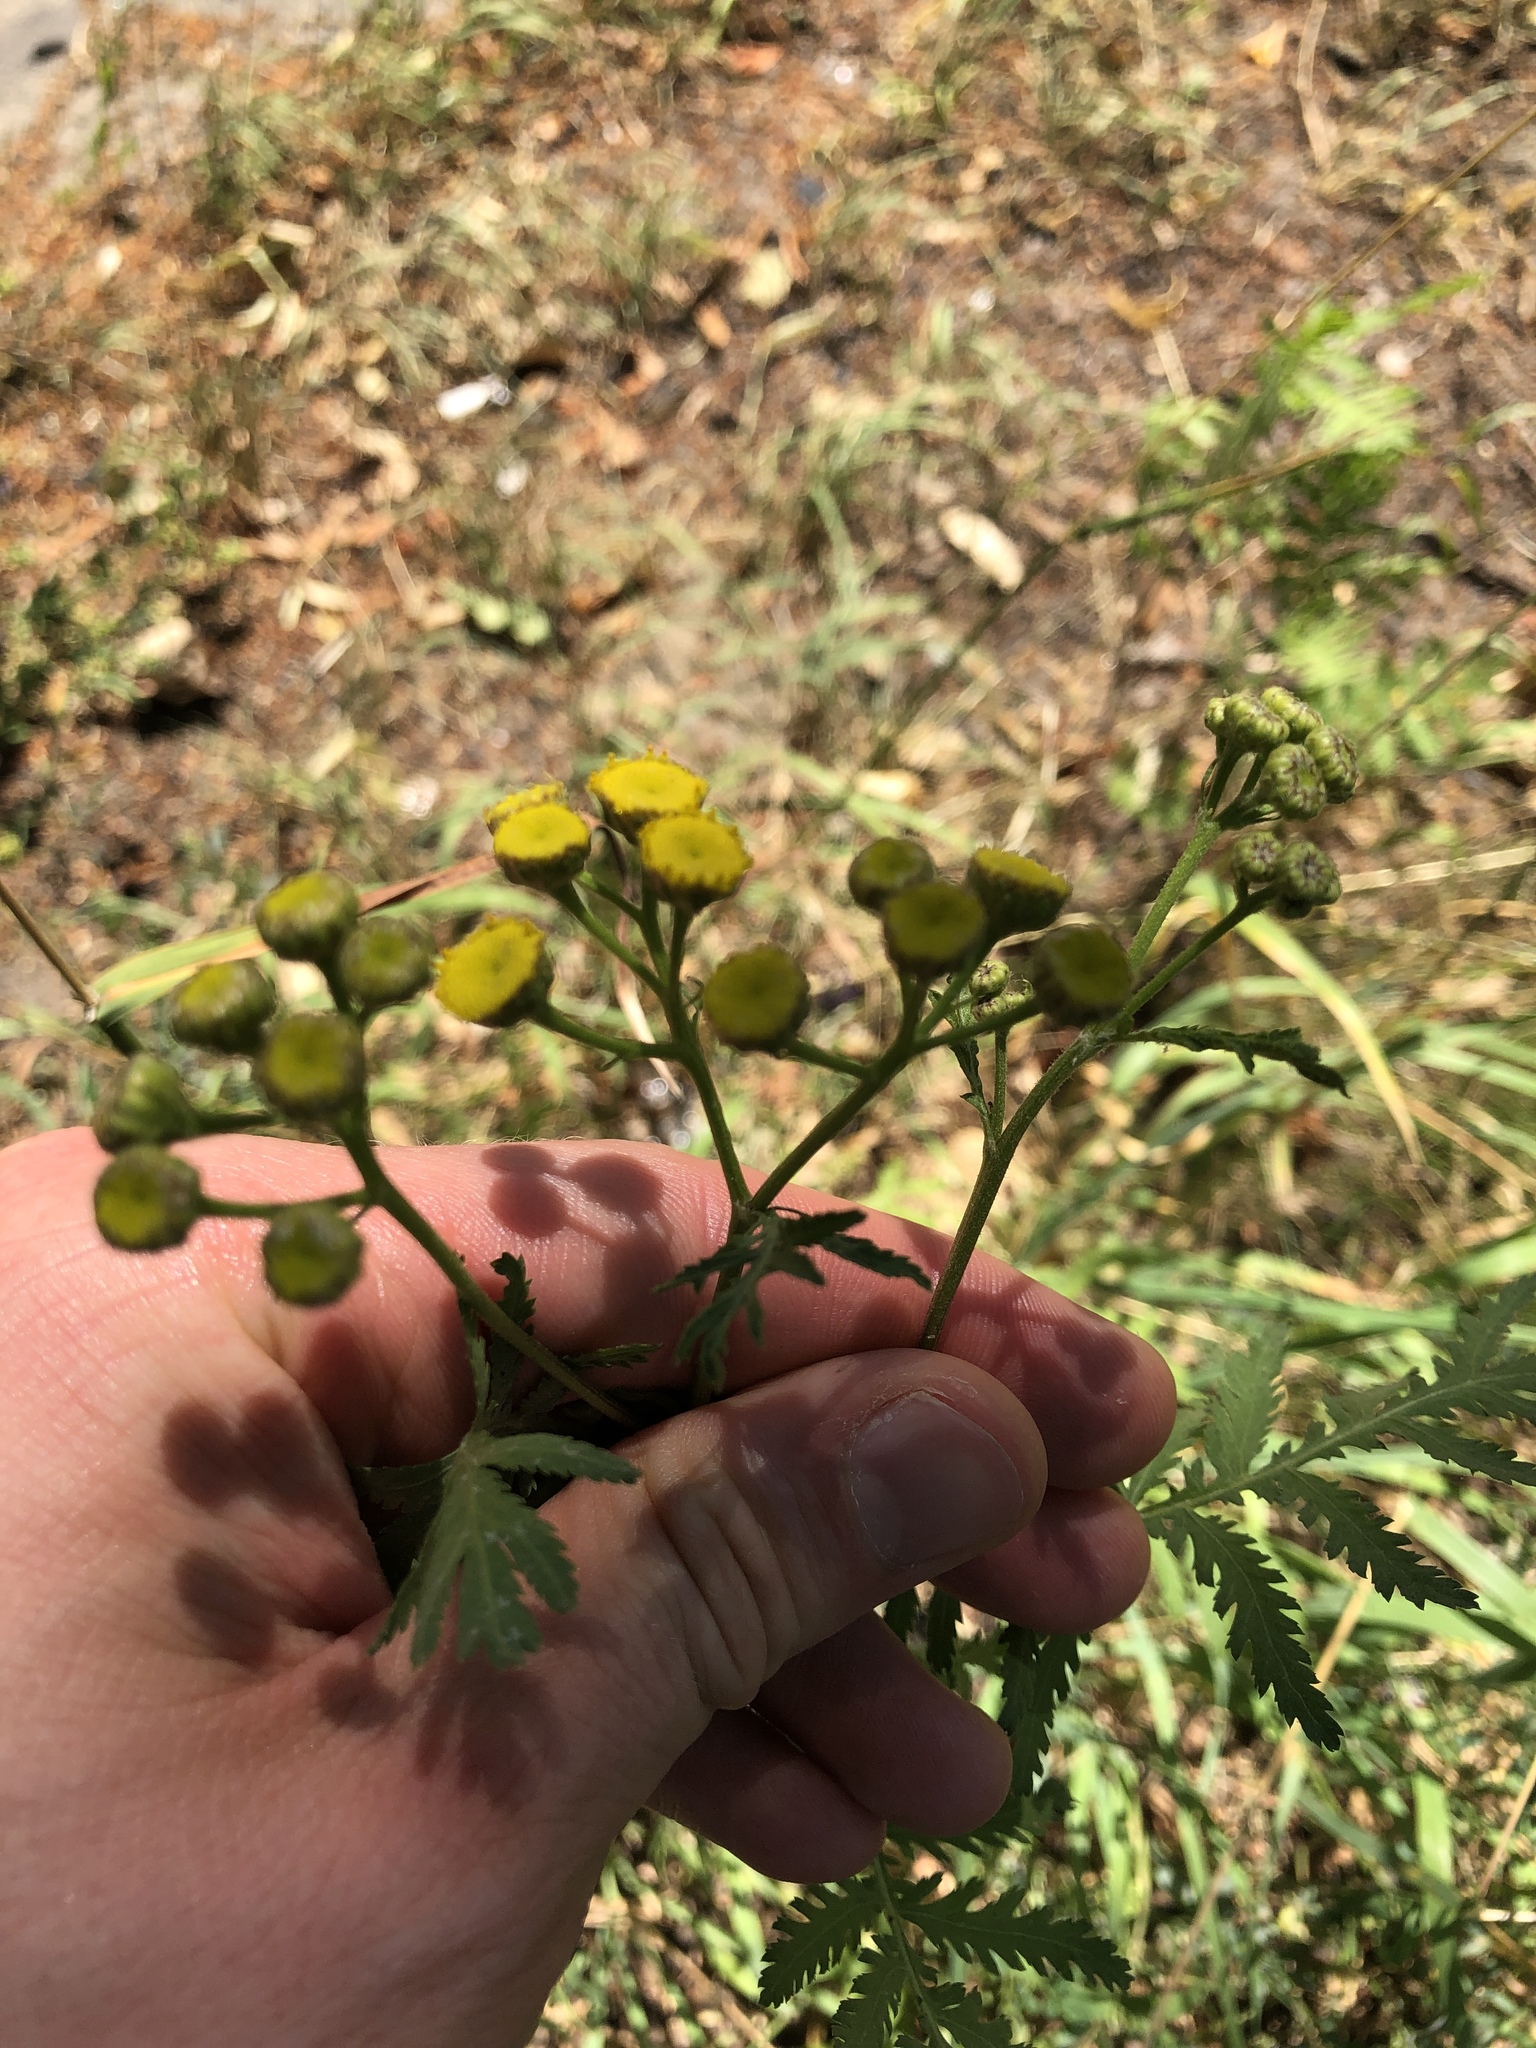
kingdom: Plantae
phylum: Tracheophyta
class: Magnoliopsida
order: Asterales
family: Asteraceae
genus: Tanacetum
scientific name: Tanacetum vulgare
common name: Common tansy
